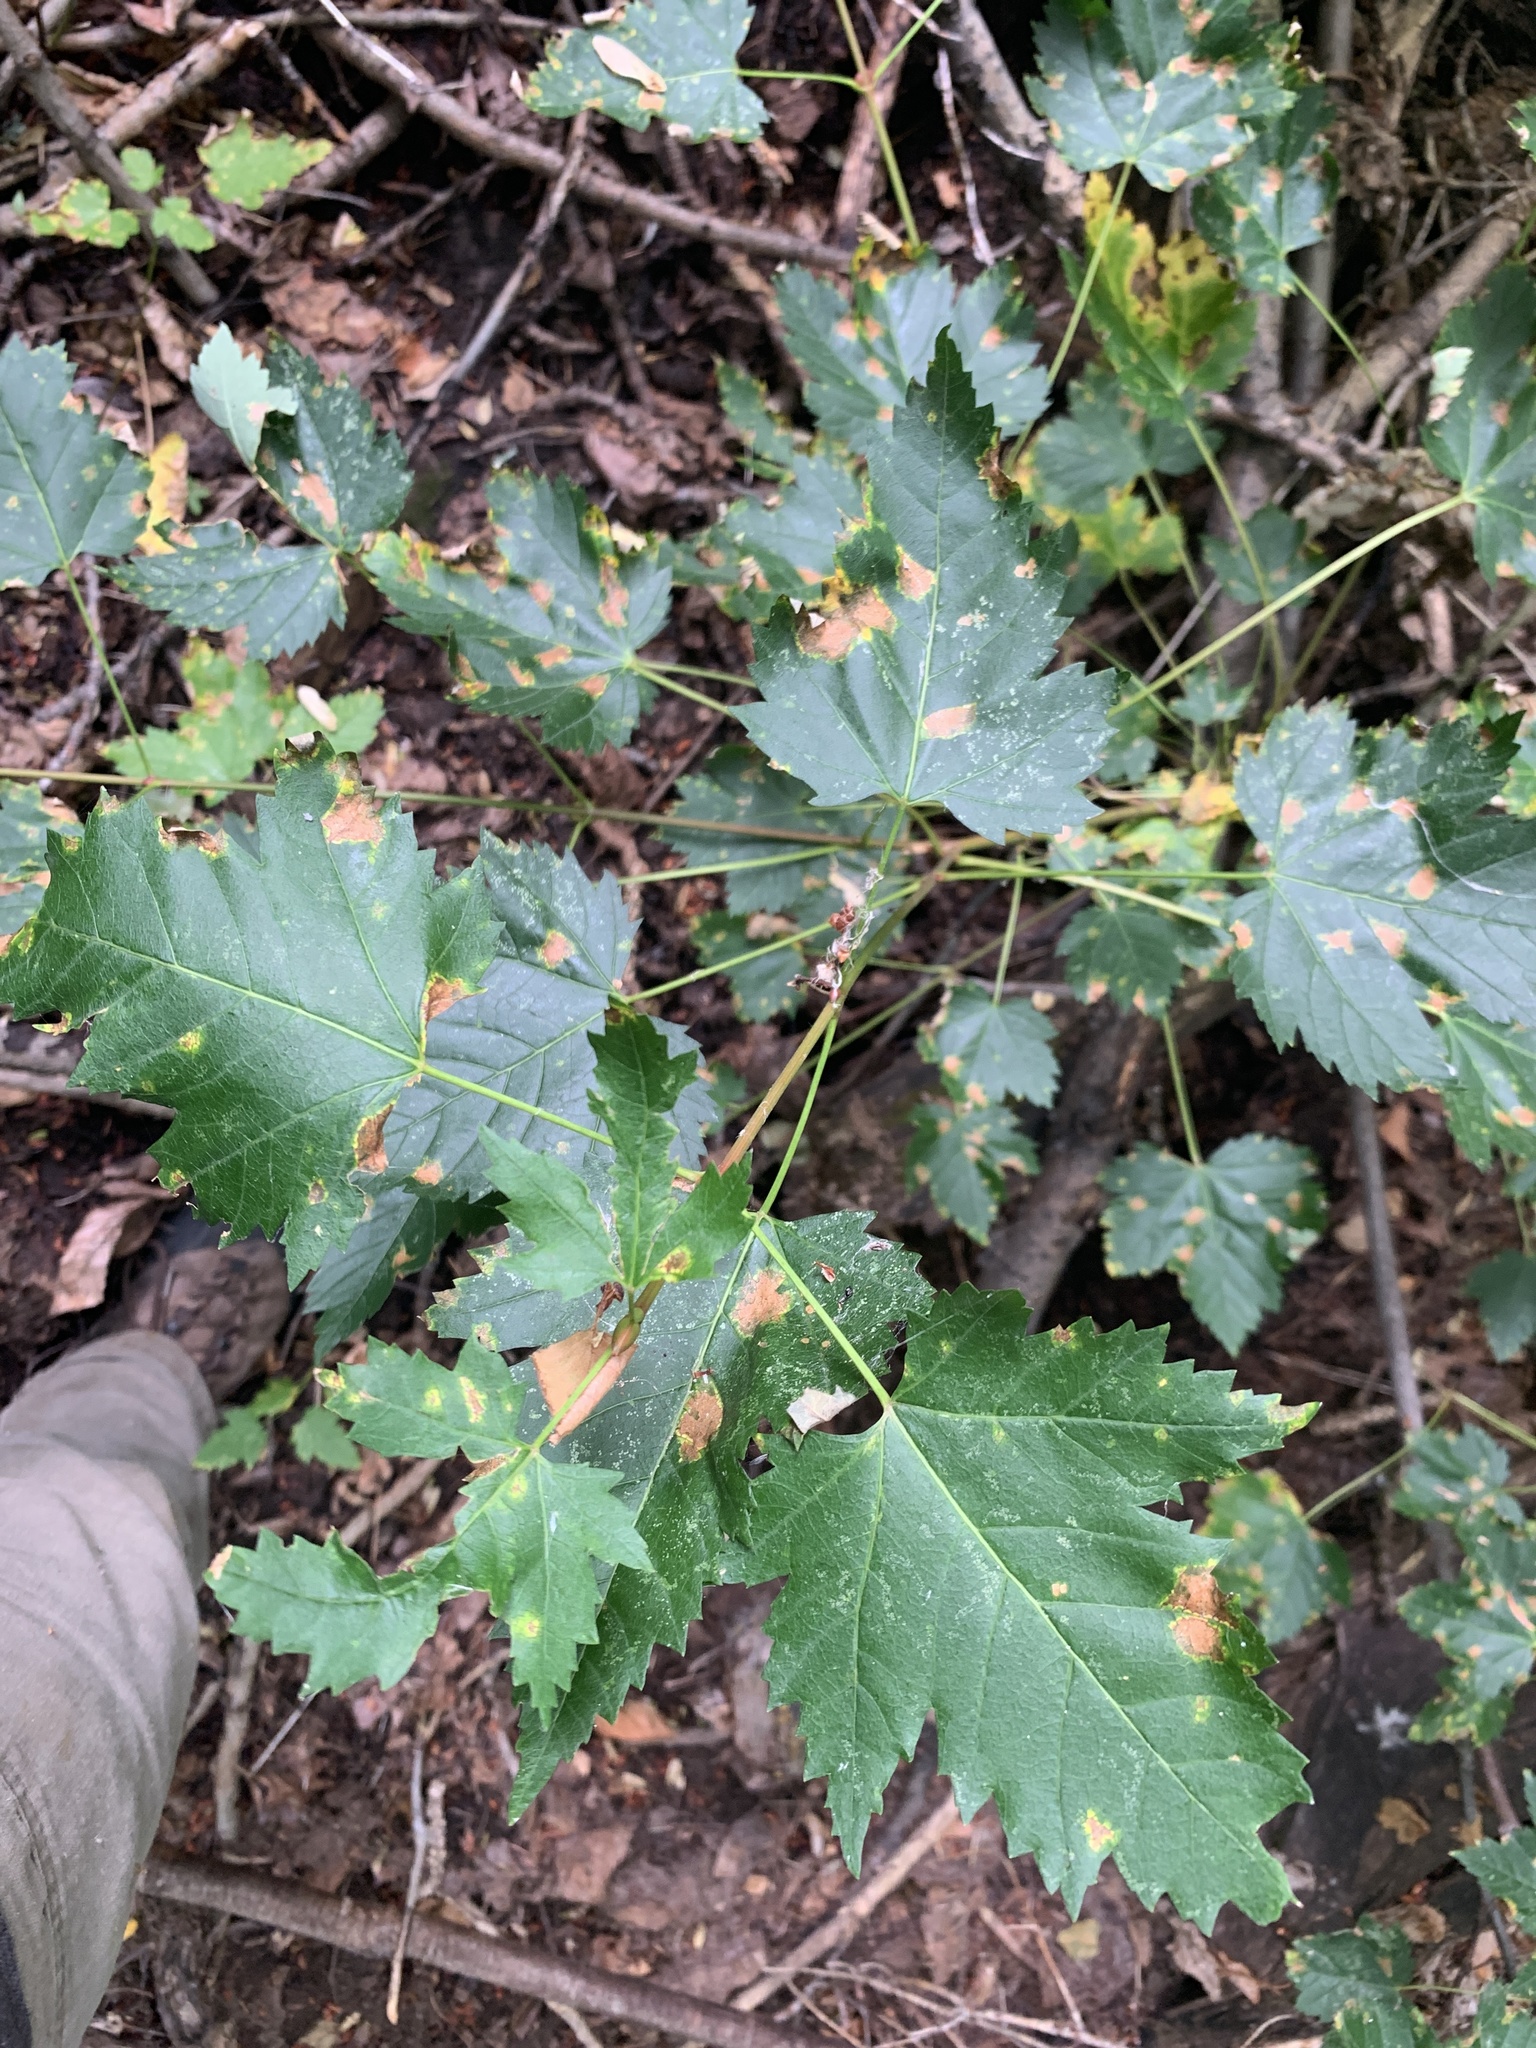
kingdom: Plantae
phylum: Tracheophyta
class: Magnoliopsida
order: Sapindales
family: Sapindaceae
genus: Acer
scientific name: Acer glabrum
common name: Rocky mountain maple
